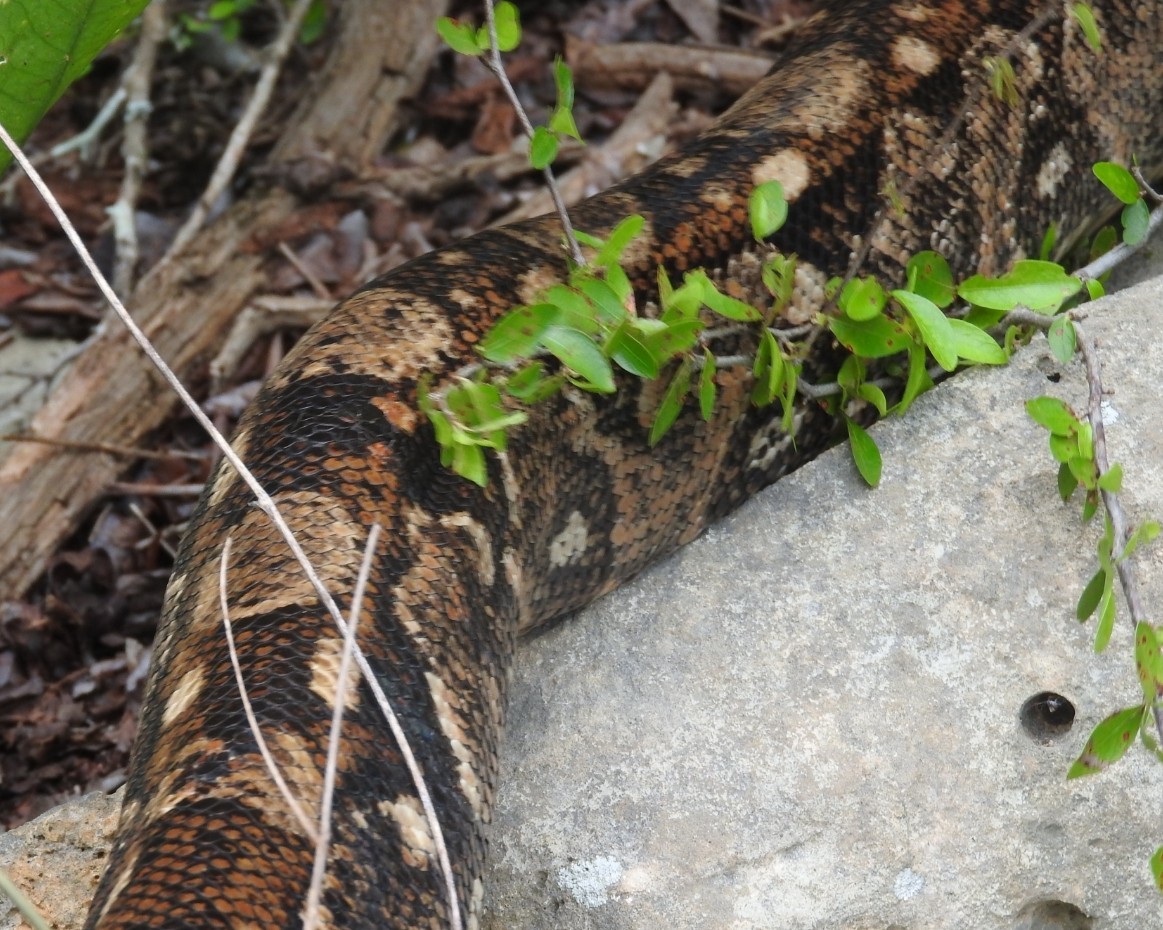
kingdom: Animalia
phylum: Chordata
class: Squamata
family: Boidae
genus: Boa
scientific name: Boa imperator
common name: Central american boa
